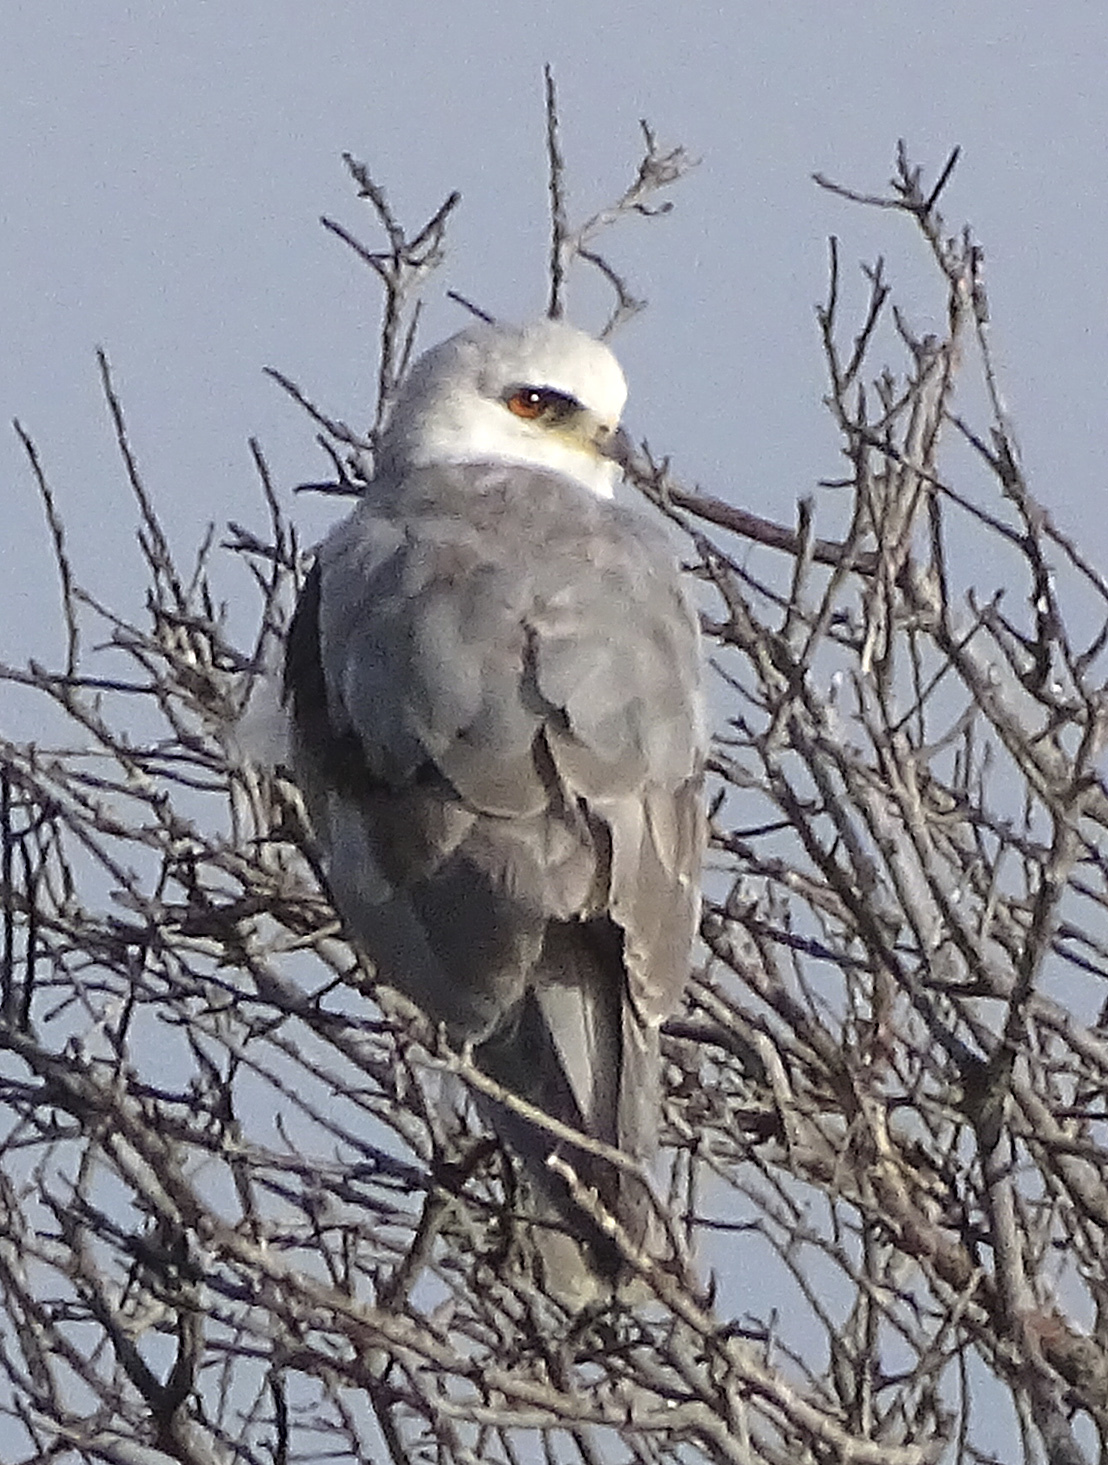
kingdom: Animalia
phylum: Chordata
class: Aves
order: Accipitriformes
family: Accipitridae
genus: Elanus
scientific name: Elanus leucurus
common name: White-tailed kite
